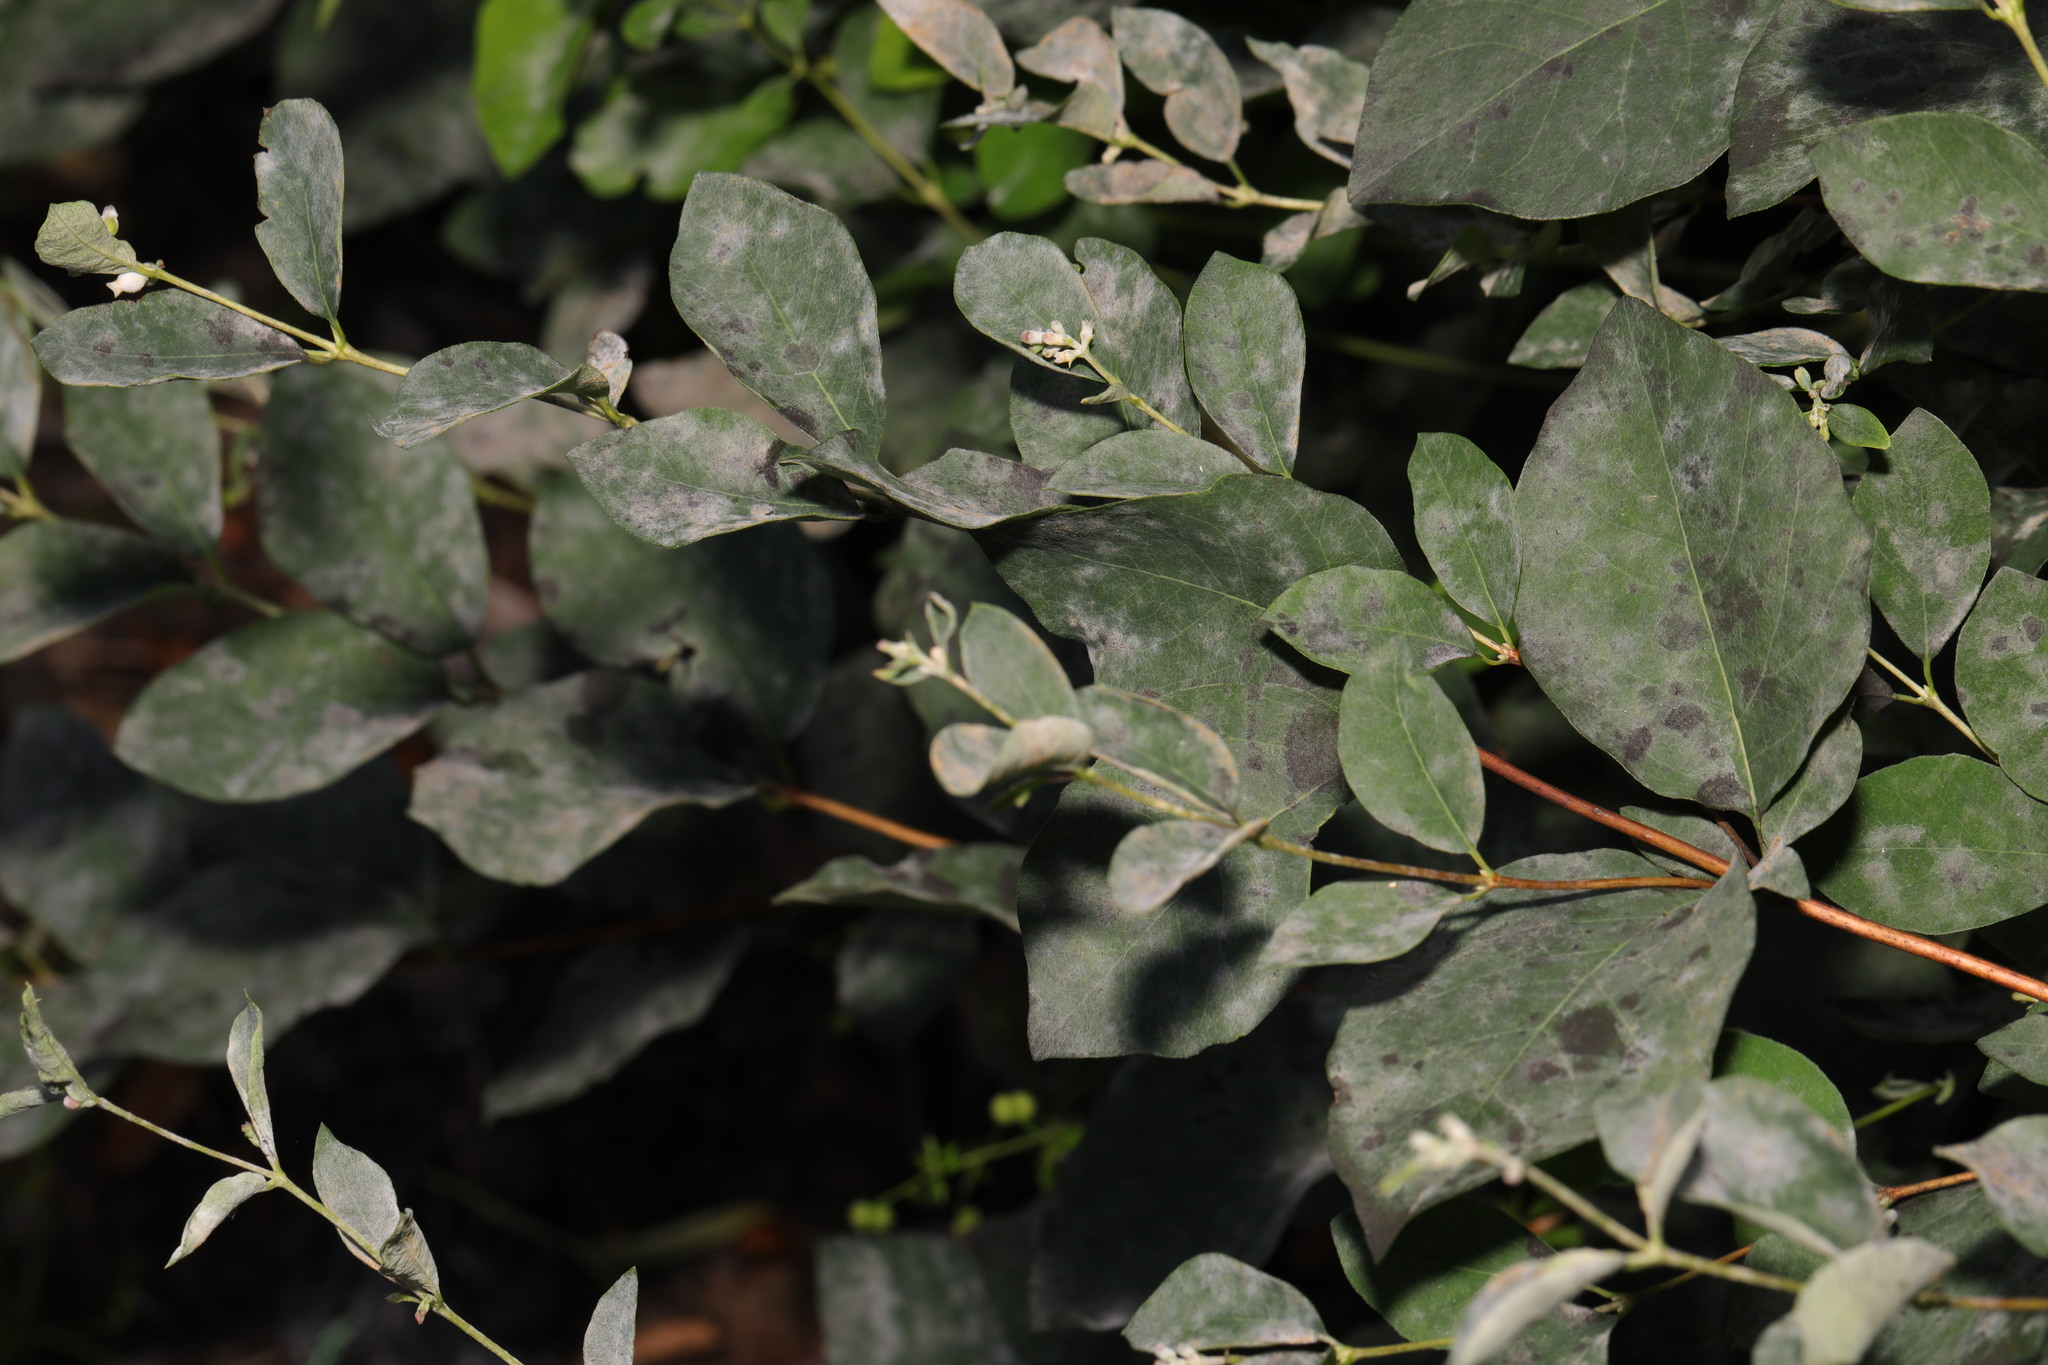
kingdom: Plantae
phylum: Tracheophyta
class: Magnoliopsida
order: Dipsacales
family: Caprifoliaceae
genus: Symphoricarpos
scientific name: Symphoricarpos albus
